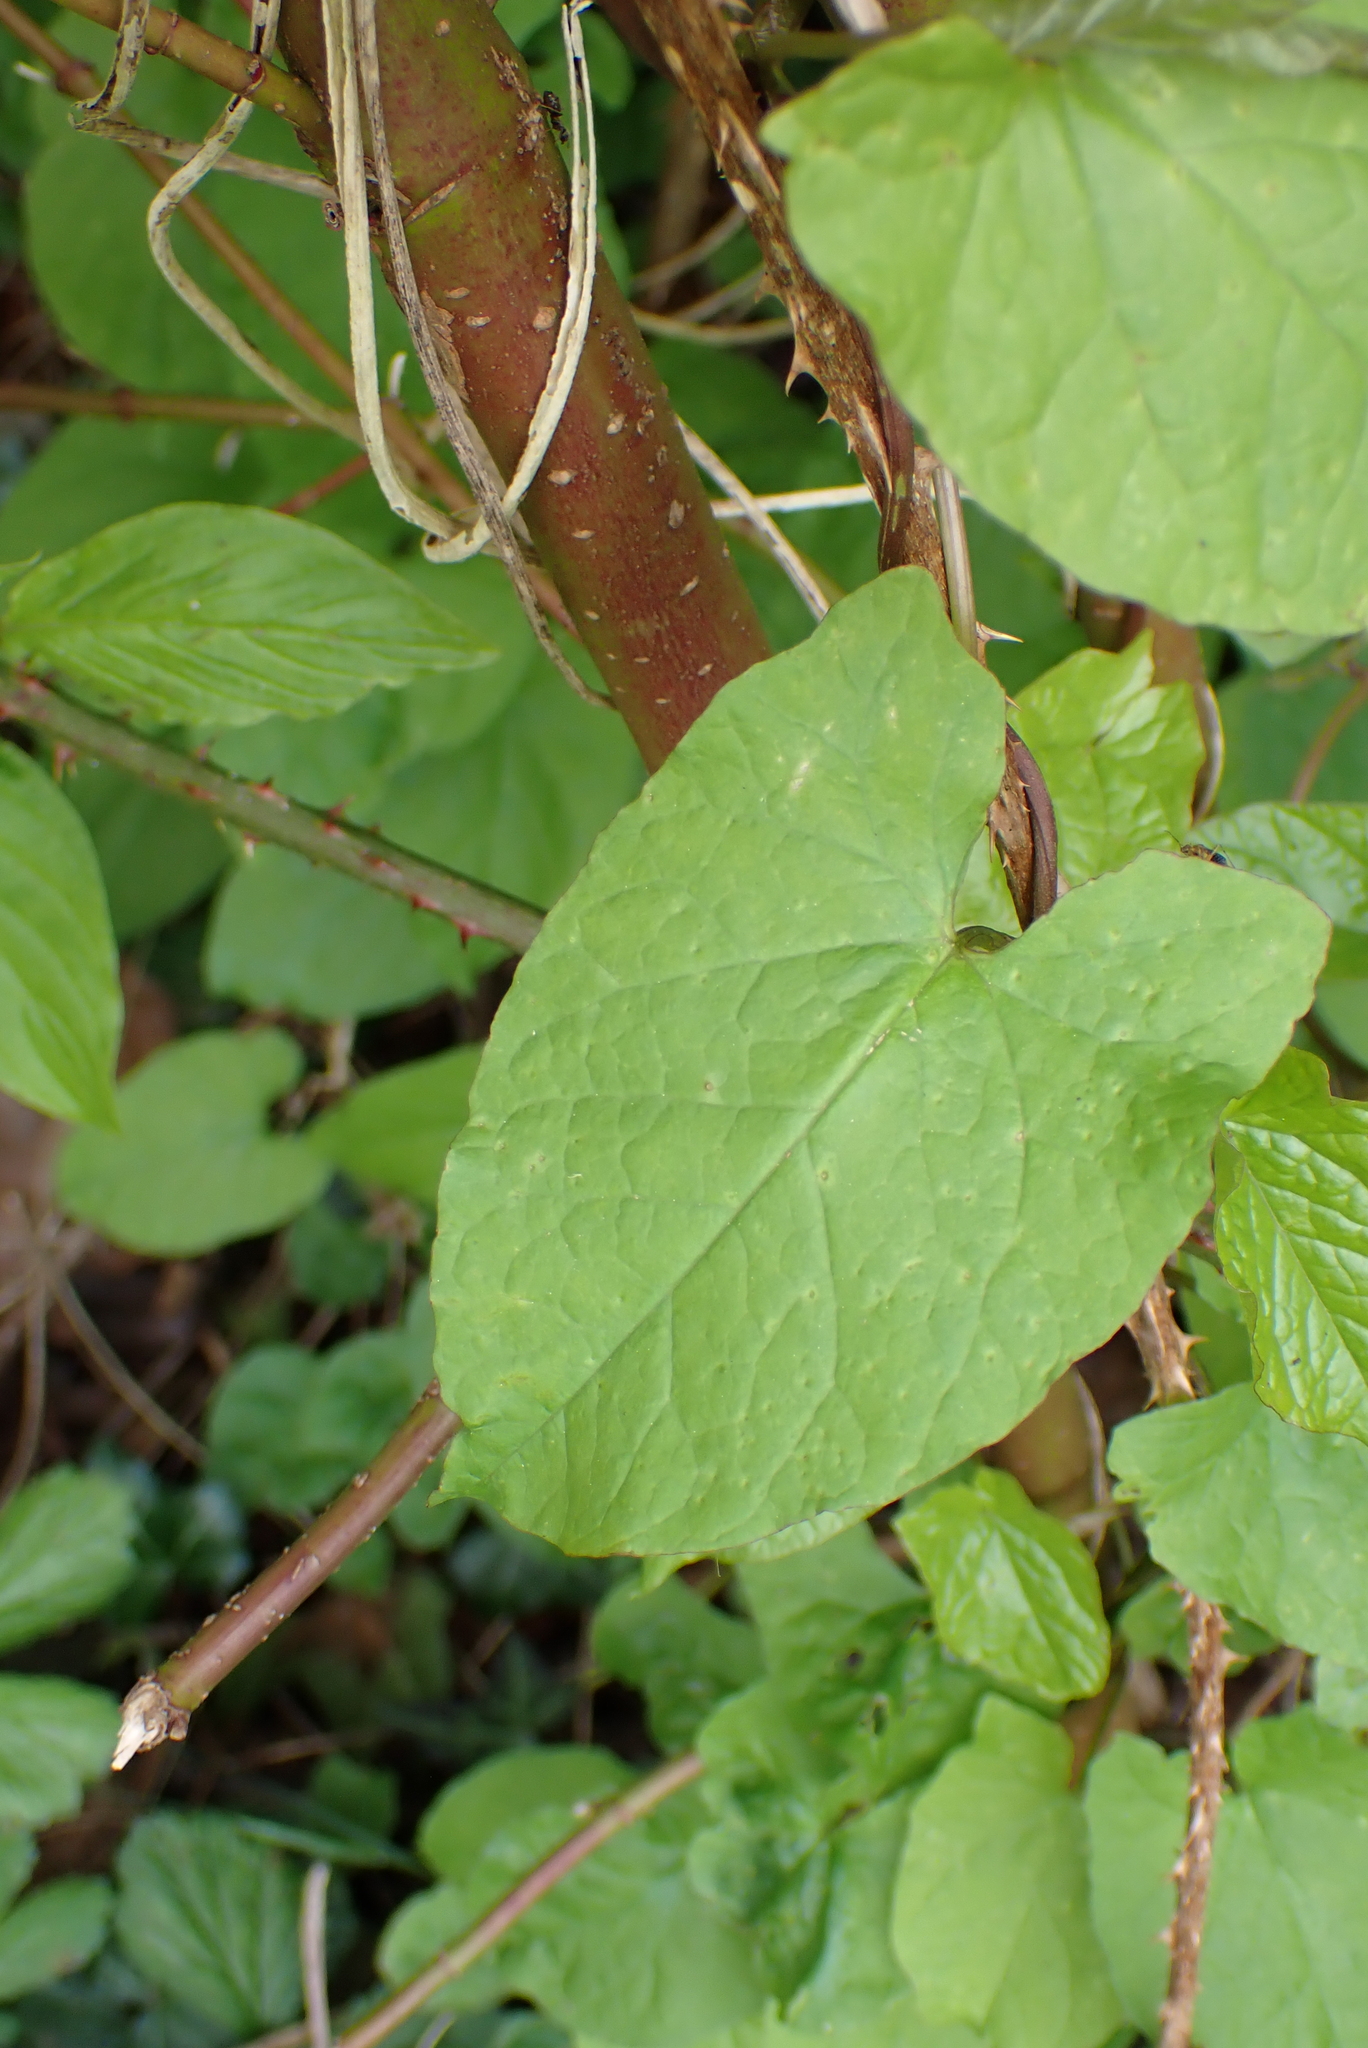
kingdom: Plantae
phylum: Tracheophyta
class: Magnoliopsida
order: Solanales
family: Convolvulaceae
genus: Calystegia
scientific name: Calystegia sepium
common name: Hedge bindweed
